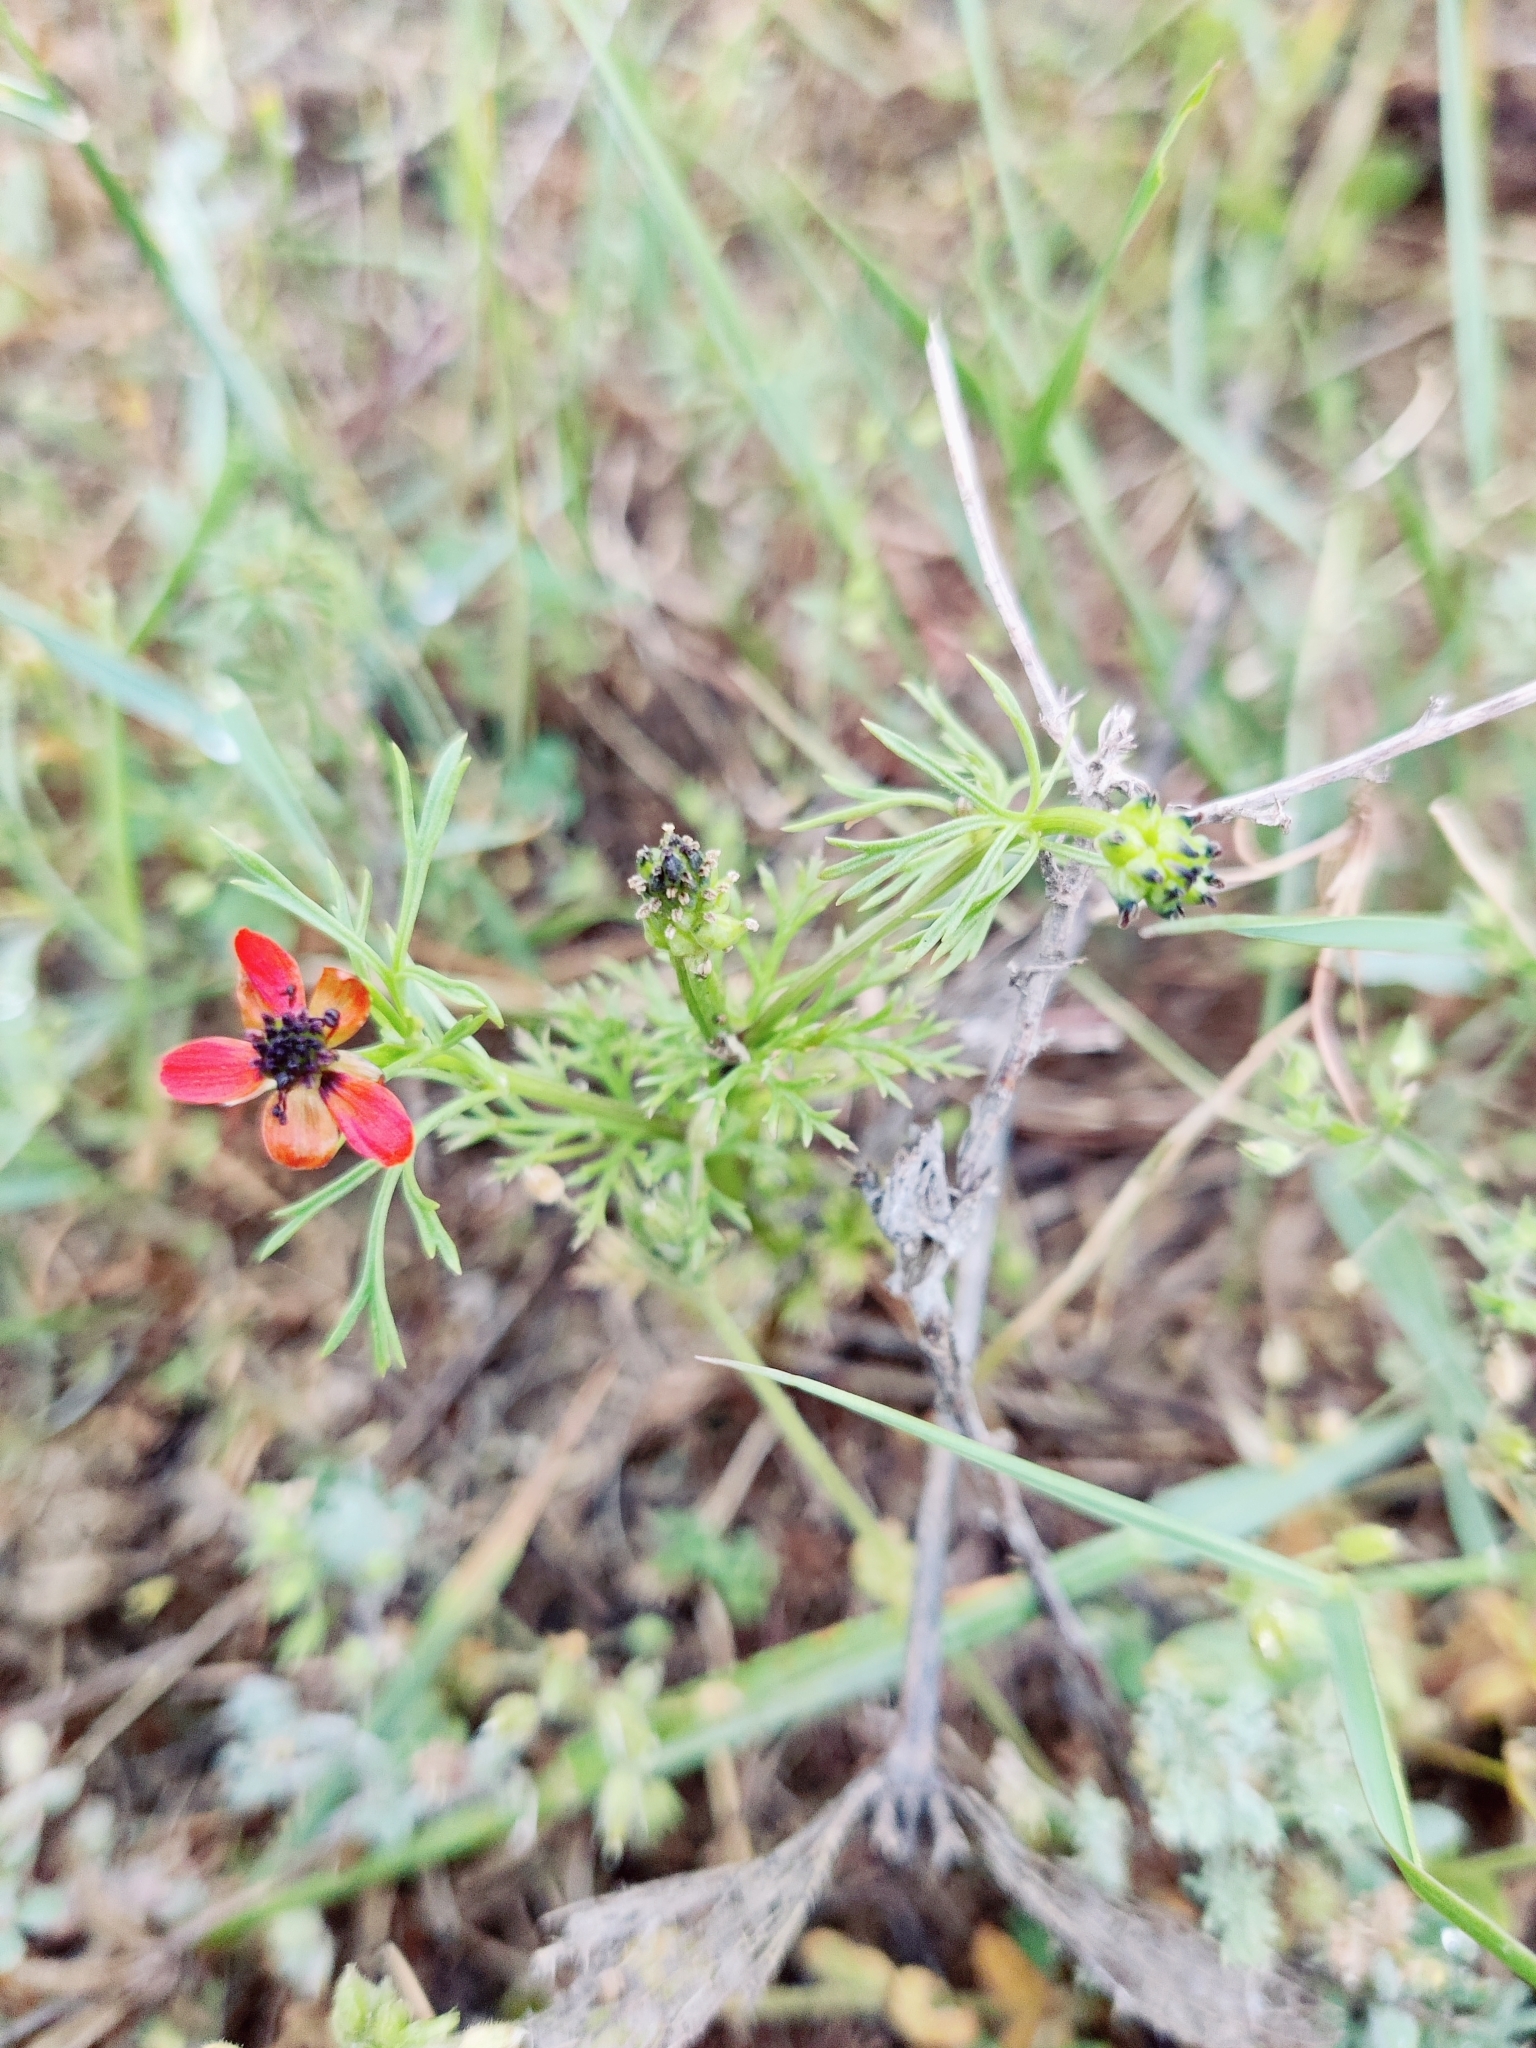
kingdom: Plantae
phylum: Tracheophyta
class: Magnoliopsida
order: Ranunculales
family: Ranunculaceae
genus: Adonis
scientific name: Adonis aestivalis
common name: Summer pheasant's-eye
